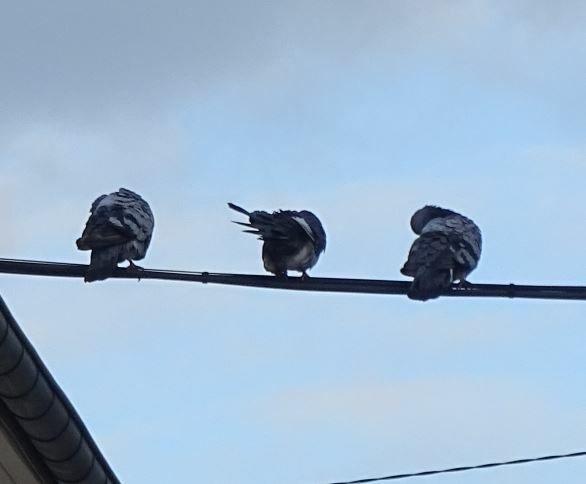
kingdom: Animalia
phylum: Chordata
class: Aves
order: Columbiformes
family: Columbidae
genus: Columba
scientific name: Columba livia
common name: Rock pigeon
